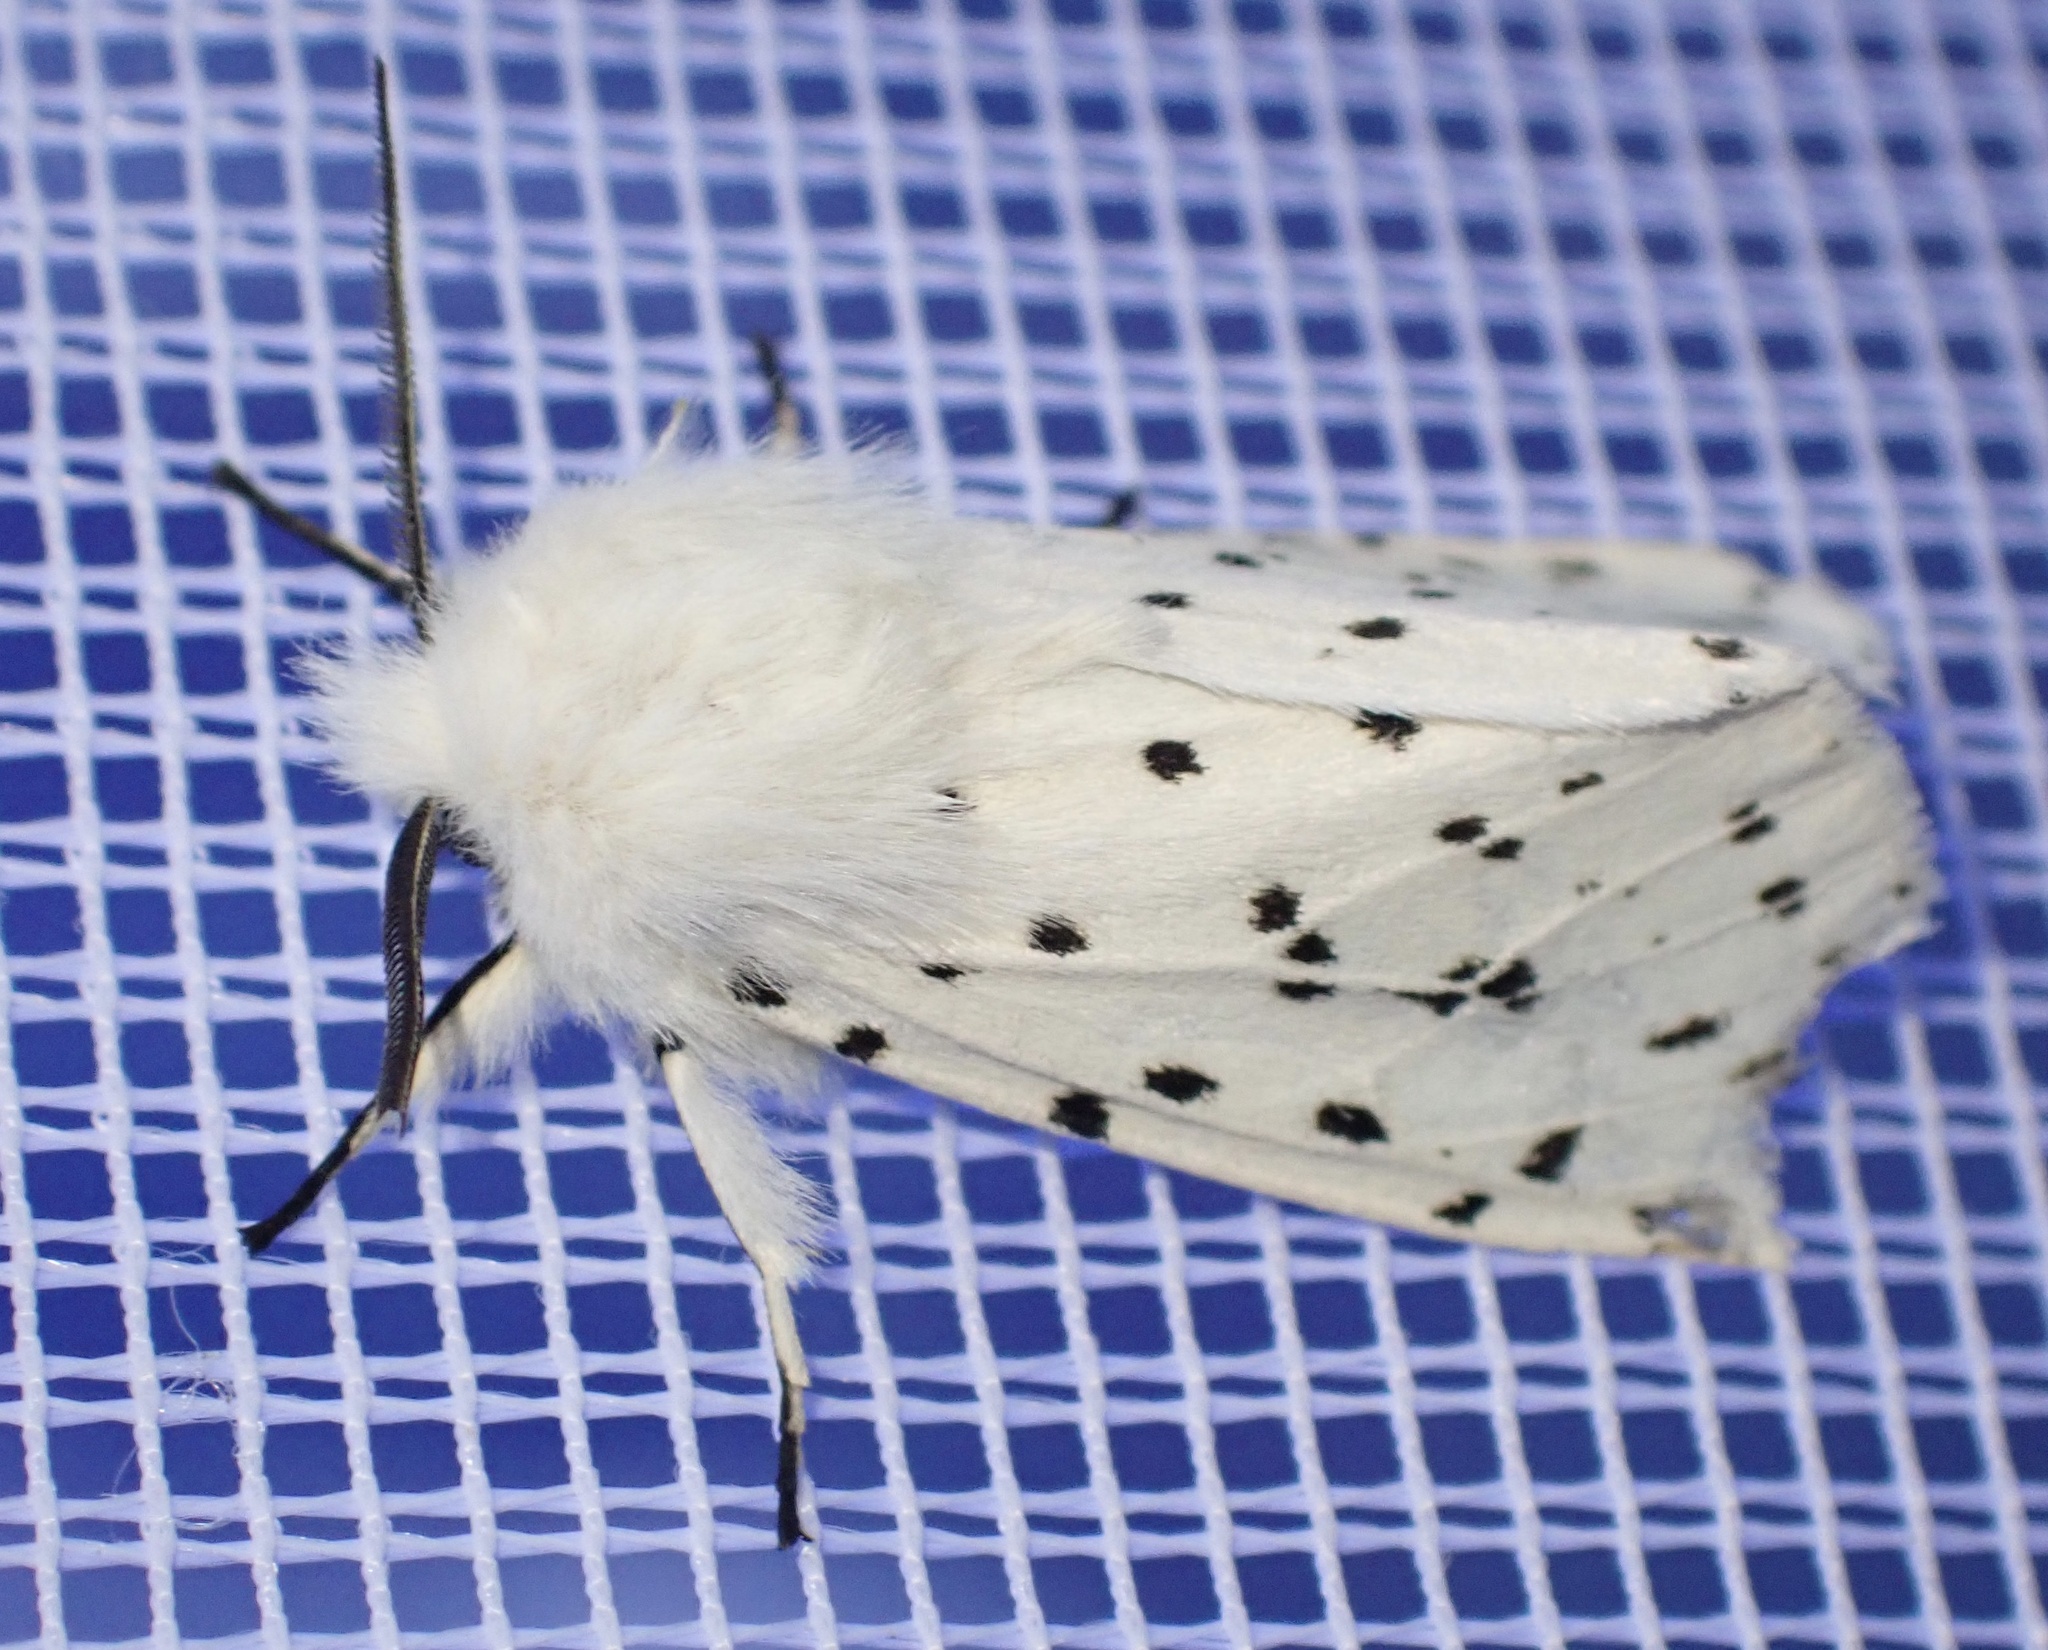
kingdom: Animalia
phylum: Arthropoda
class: Insecta
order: Lepidoptera
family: Erebidae
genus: Spilosoma
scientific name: Spilosoma lubricipeda
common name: White ermine
